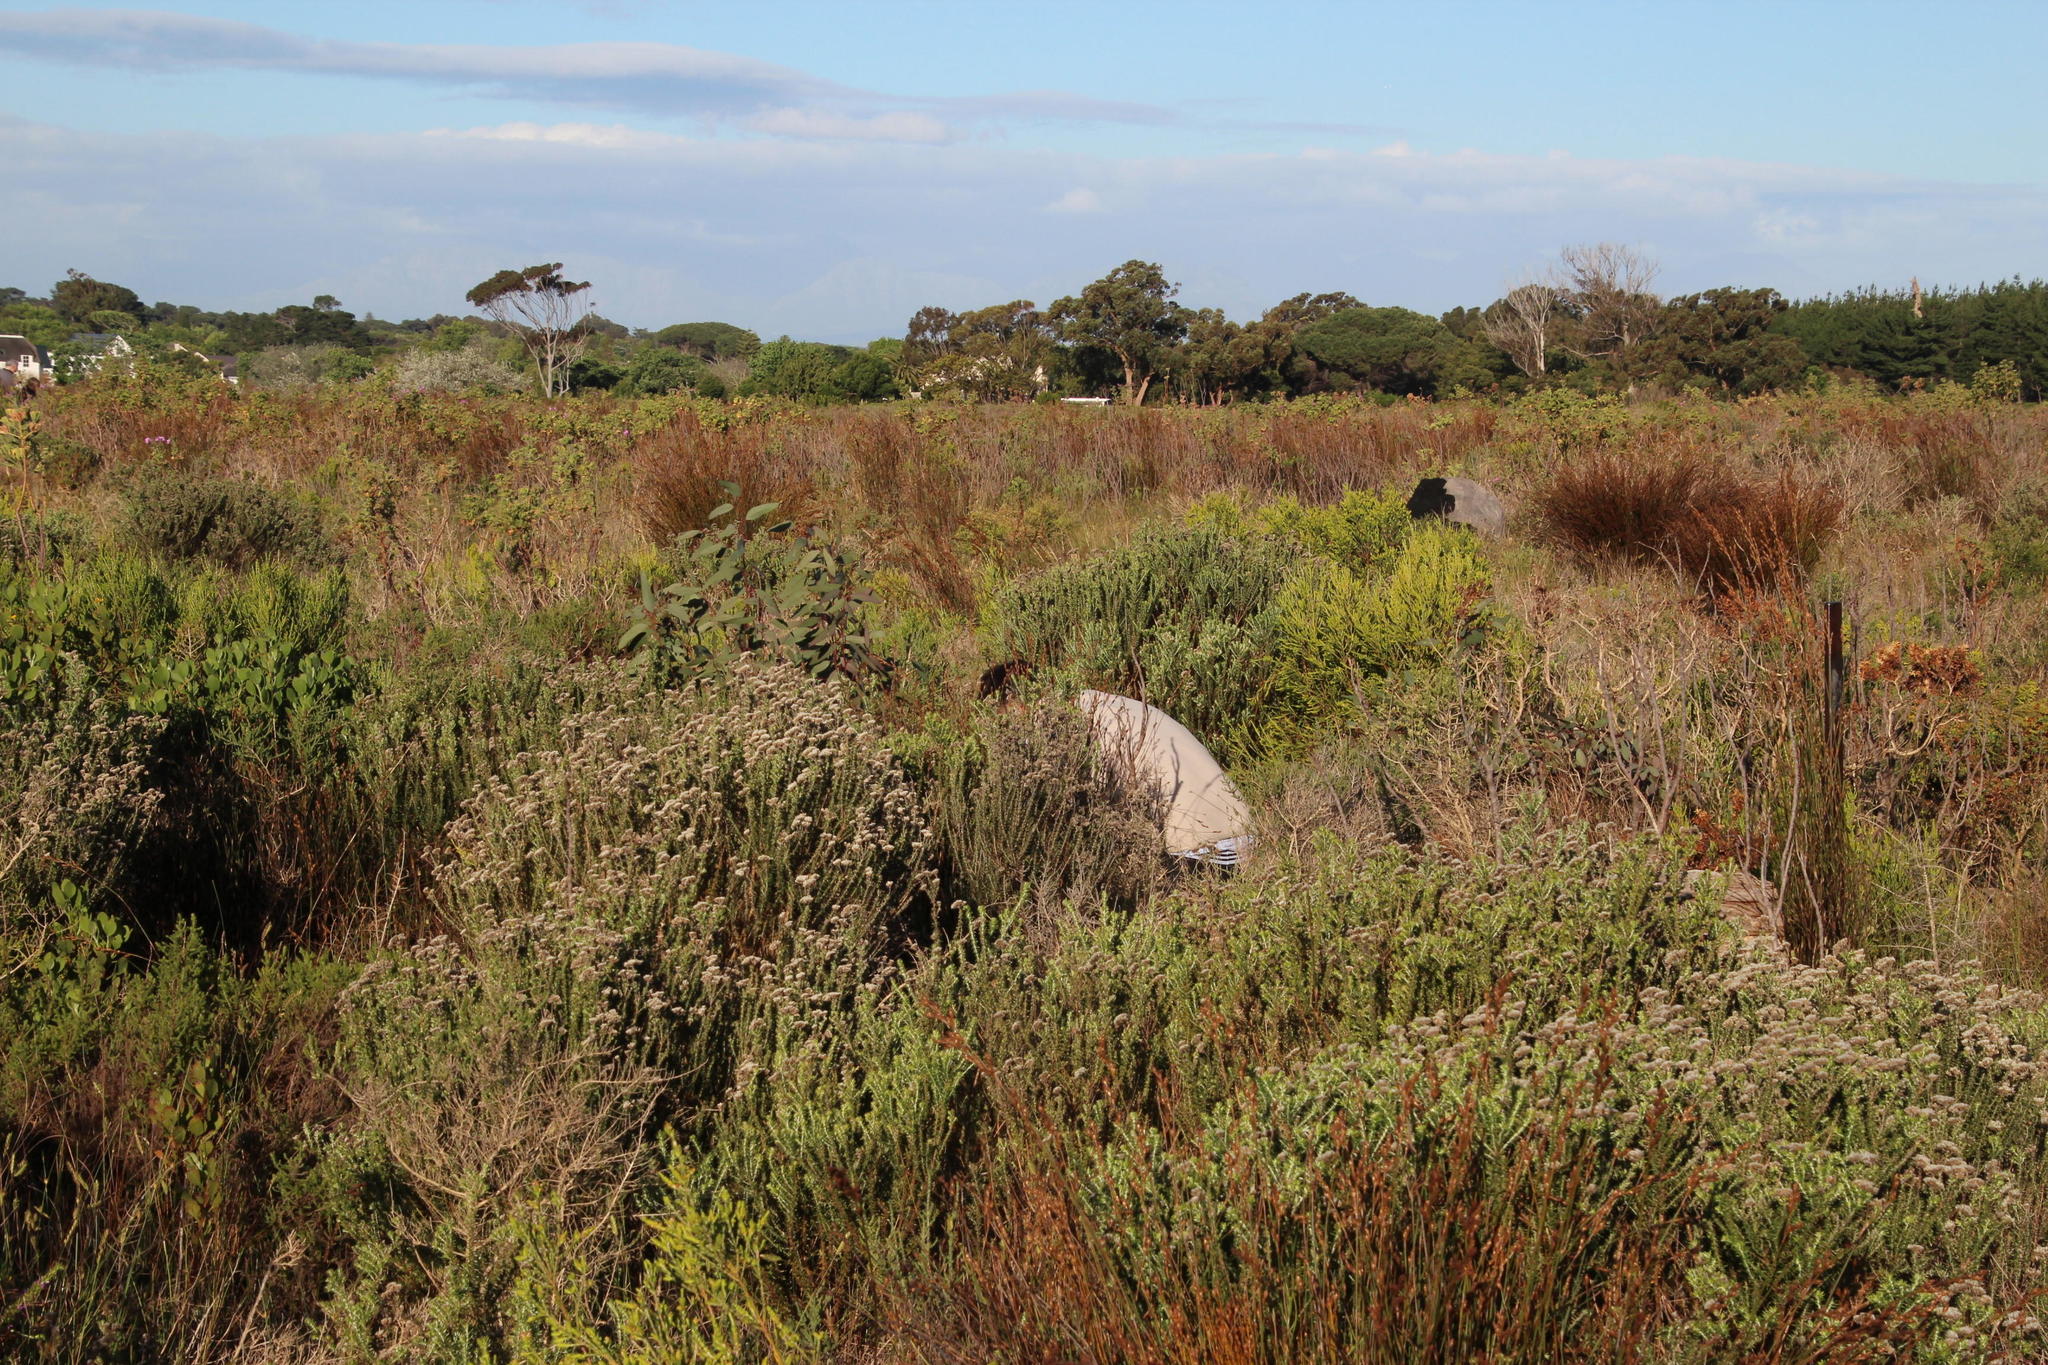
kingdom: Plantae
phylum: Tracheophyta
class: Magnoliopsida
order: Asterales
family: Asteraceae
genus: Metalasia
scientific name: Metalasia densa
